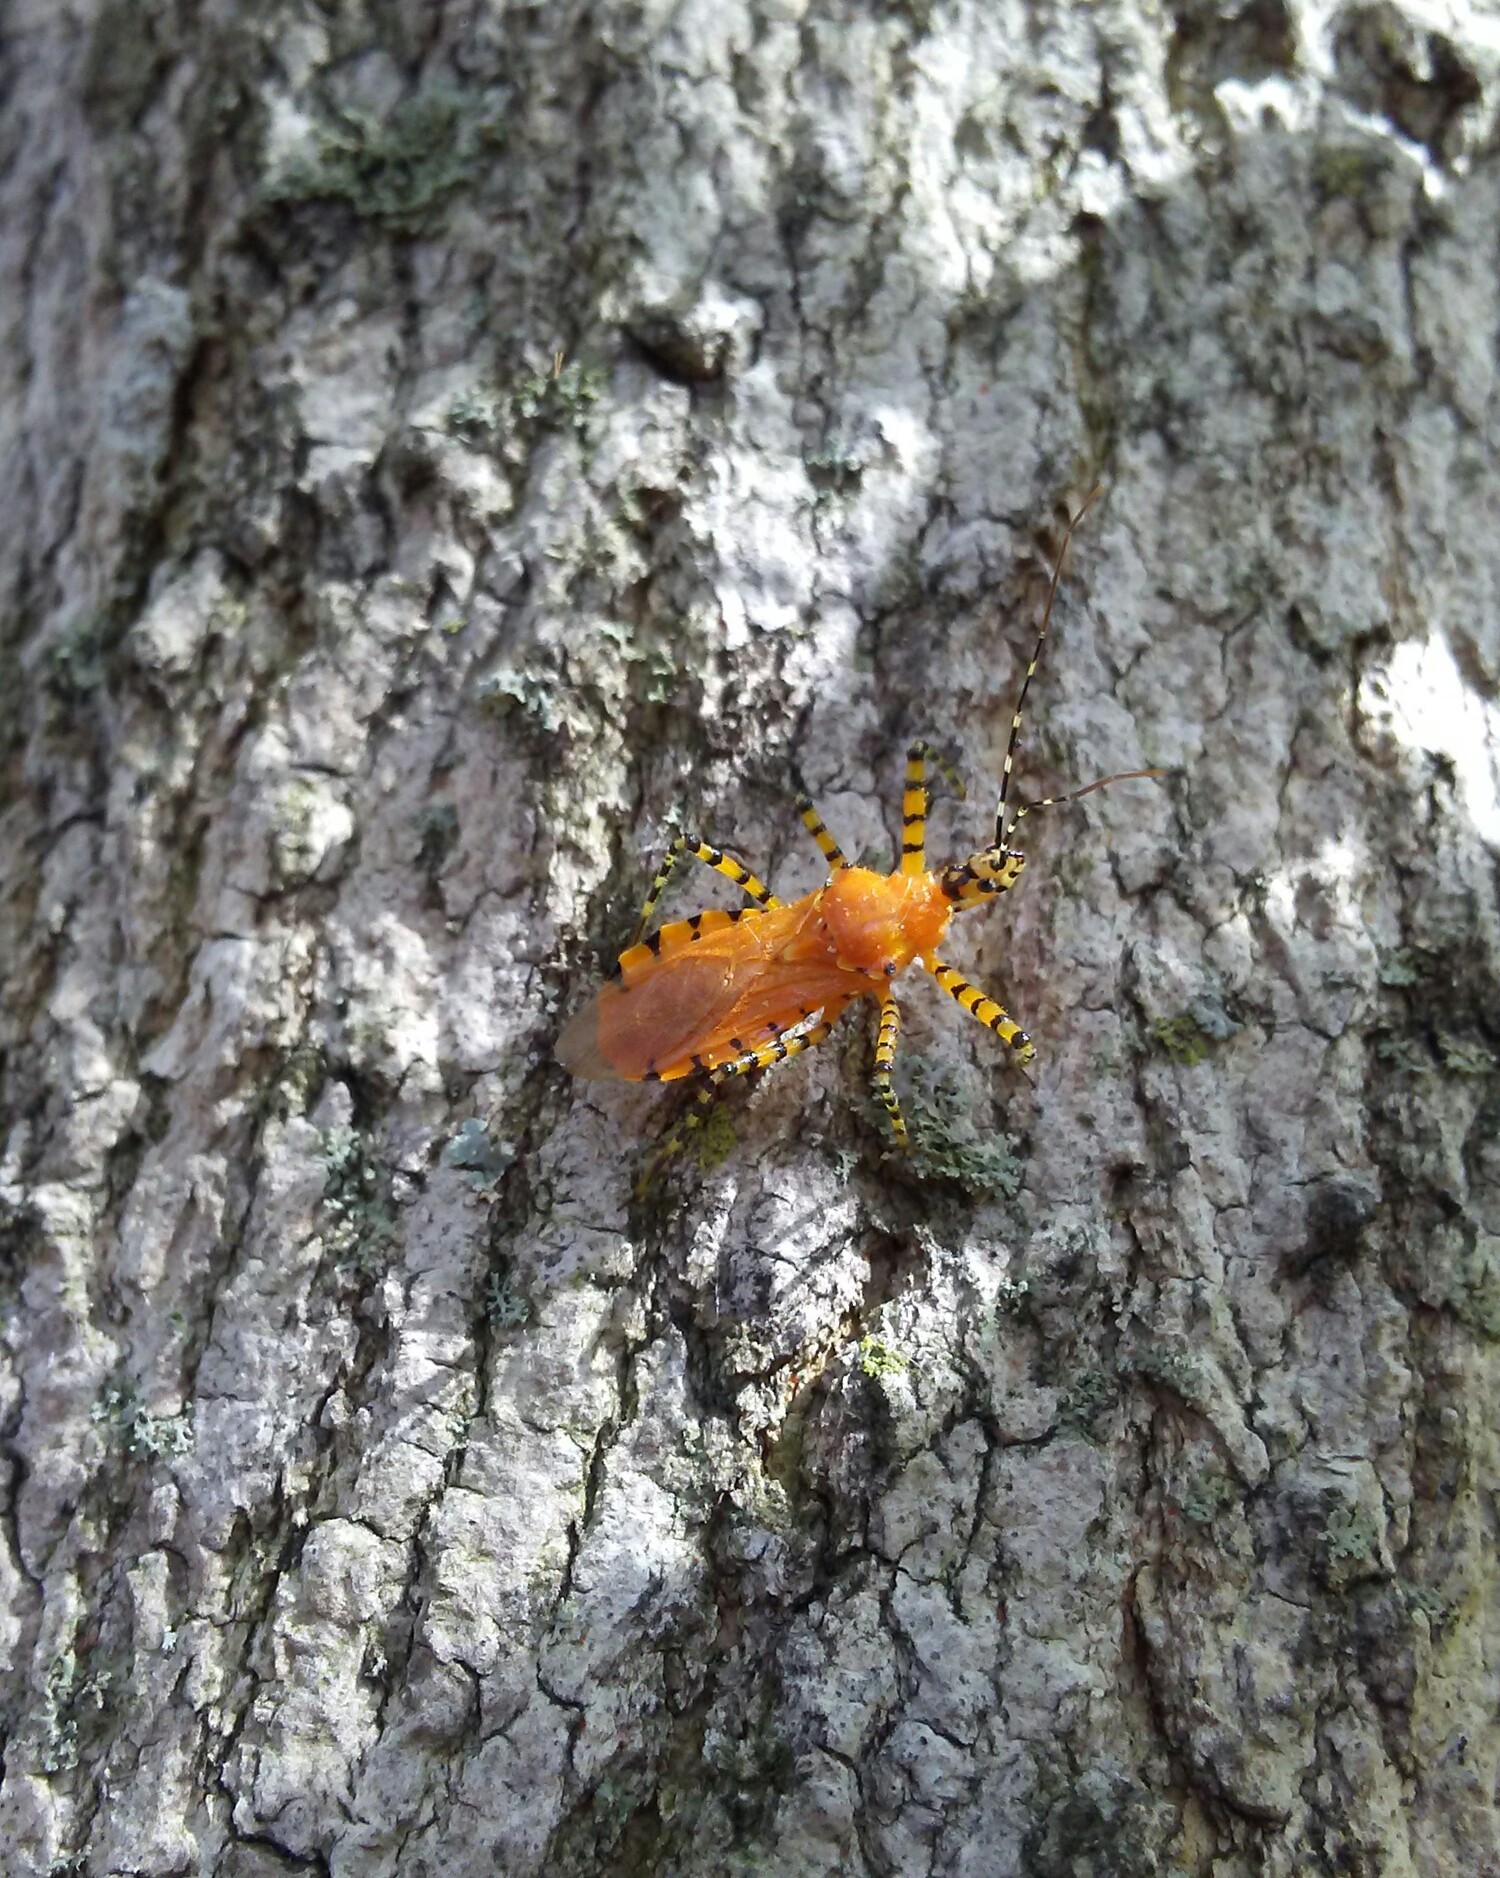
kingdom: Animalia
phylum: Arthropoda
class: Insecta
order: Hemiptera
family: Reduviidae
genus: Pselliopus
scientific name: Pselliopus barberi
